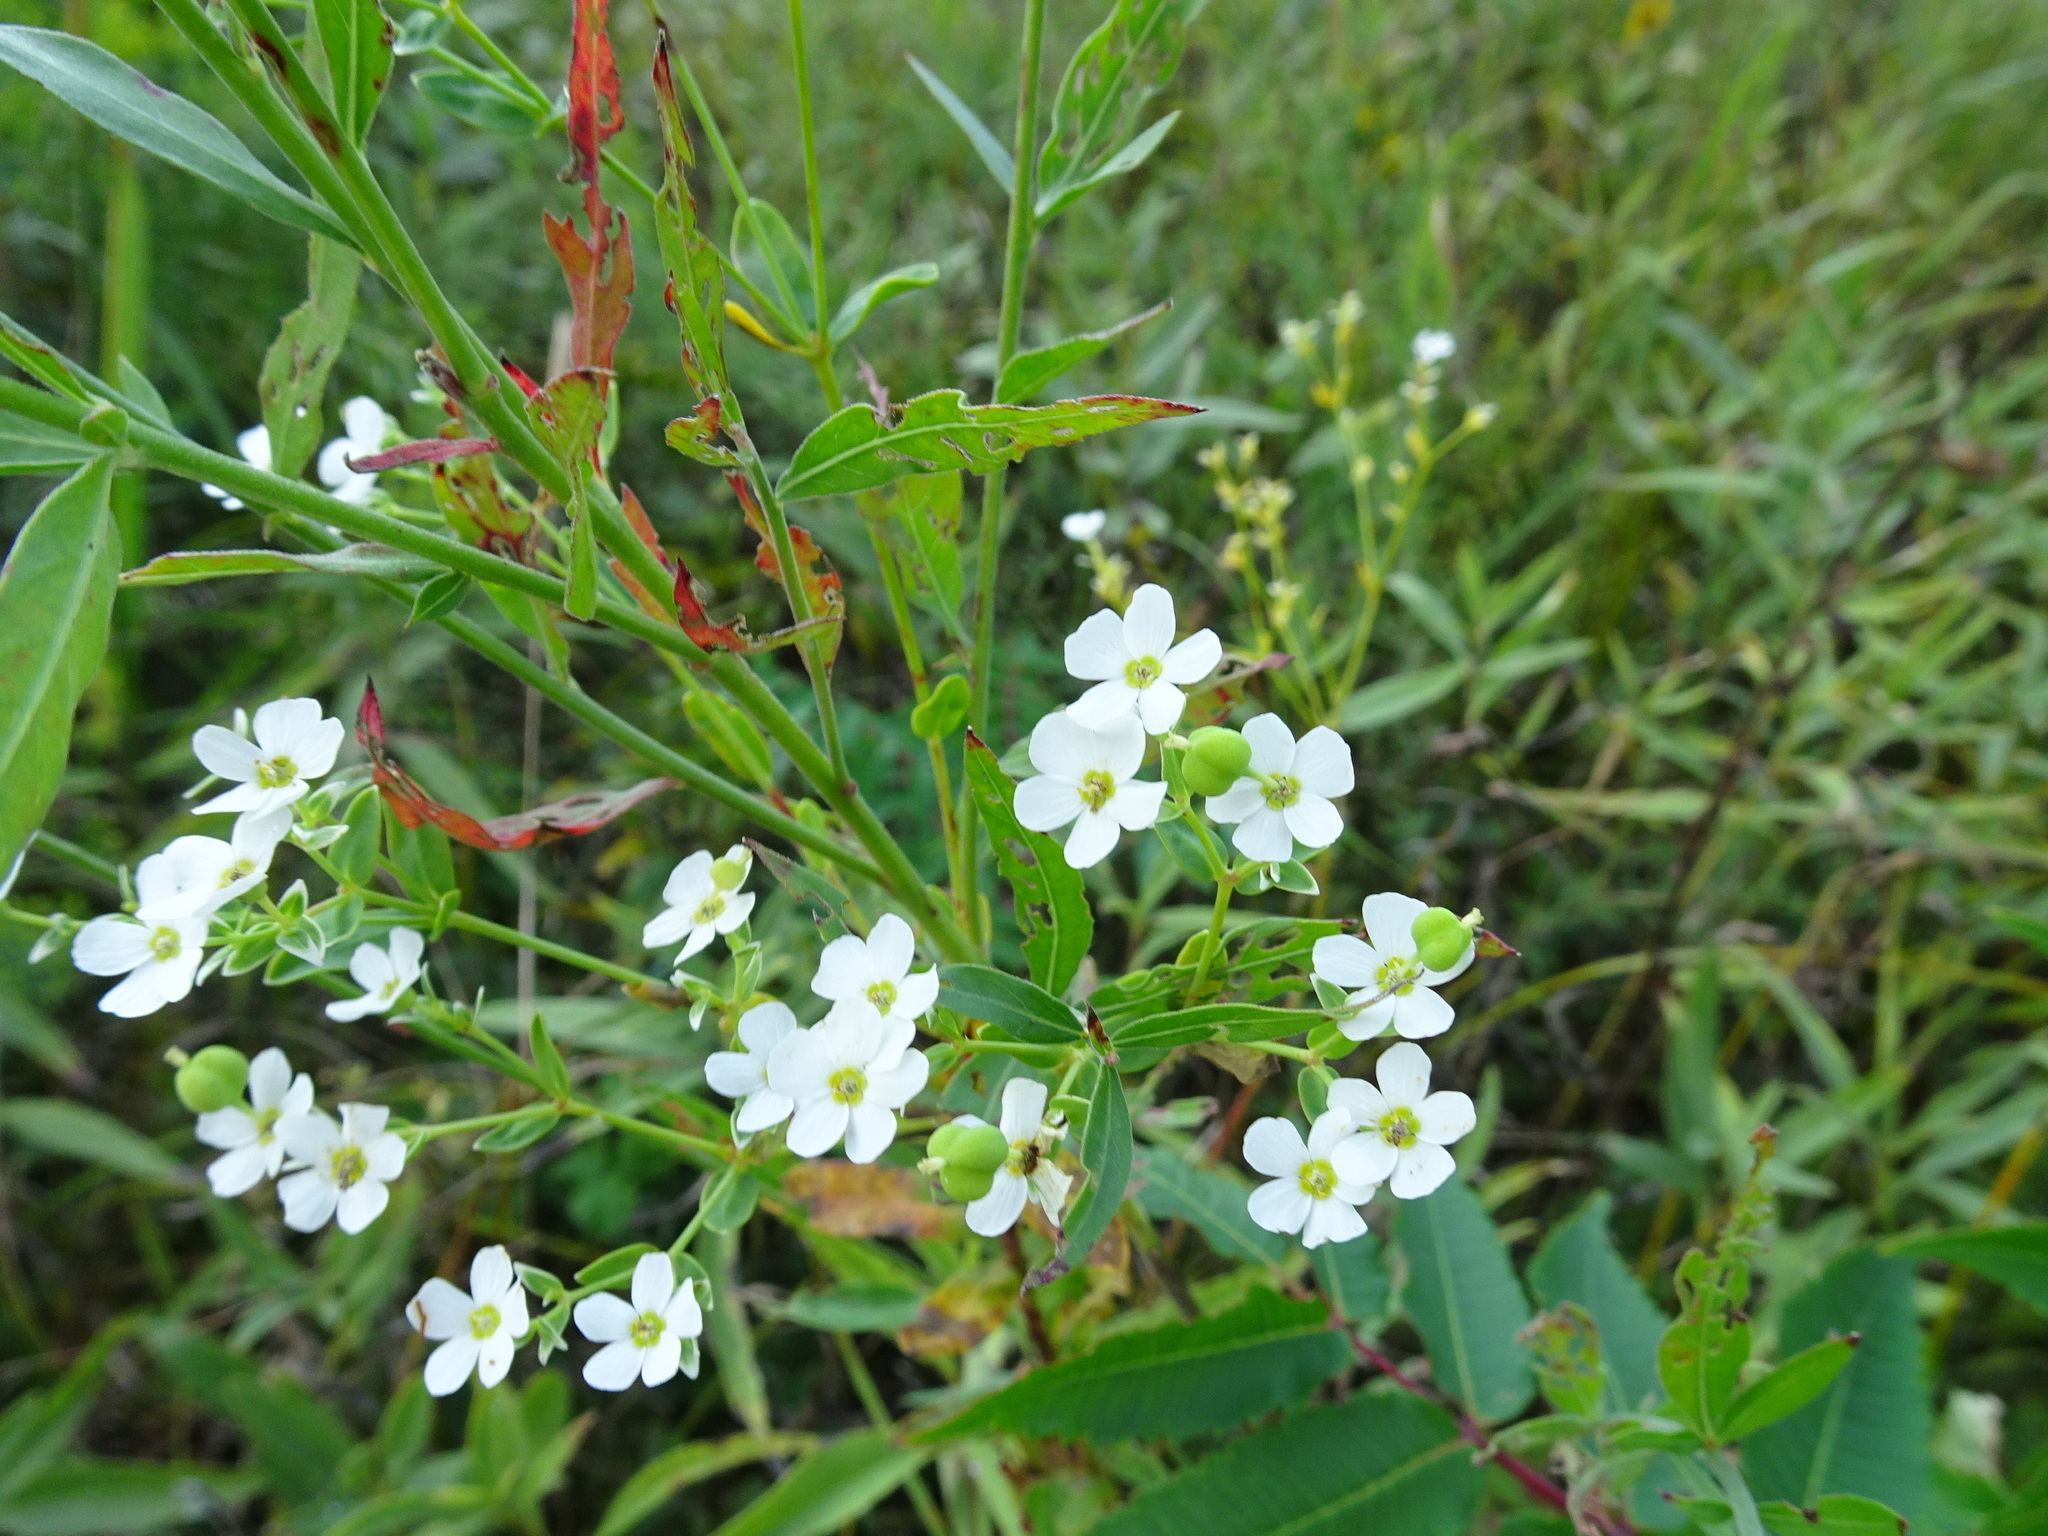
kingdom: Plantae
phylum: Tracheophyta
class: Magnoliopsida
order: Malpighiales
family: Euphorbiaceae
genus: Euphorbia
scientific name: Euphorbia corollata
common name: Flowering spurge
